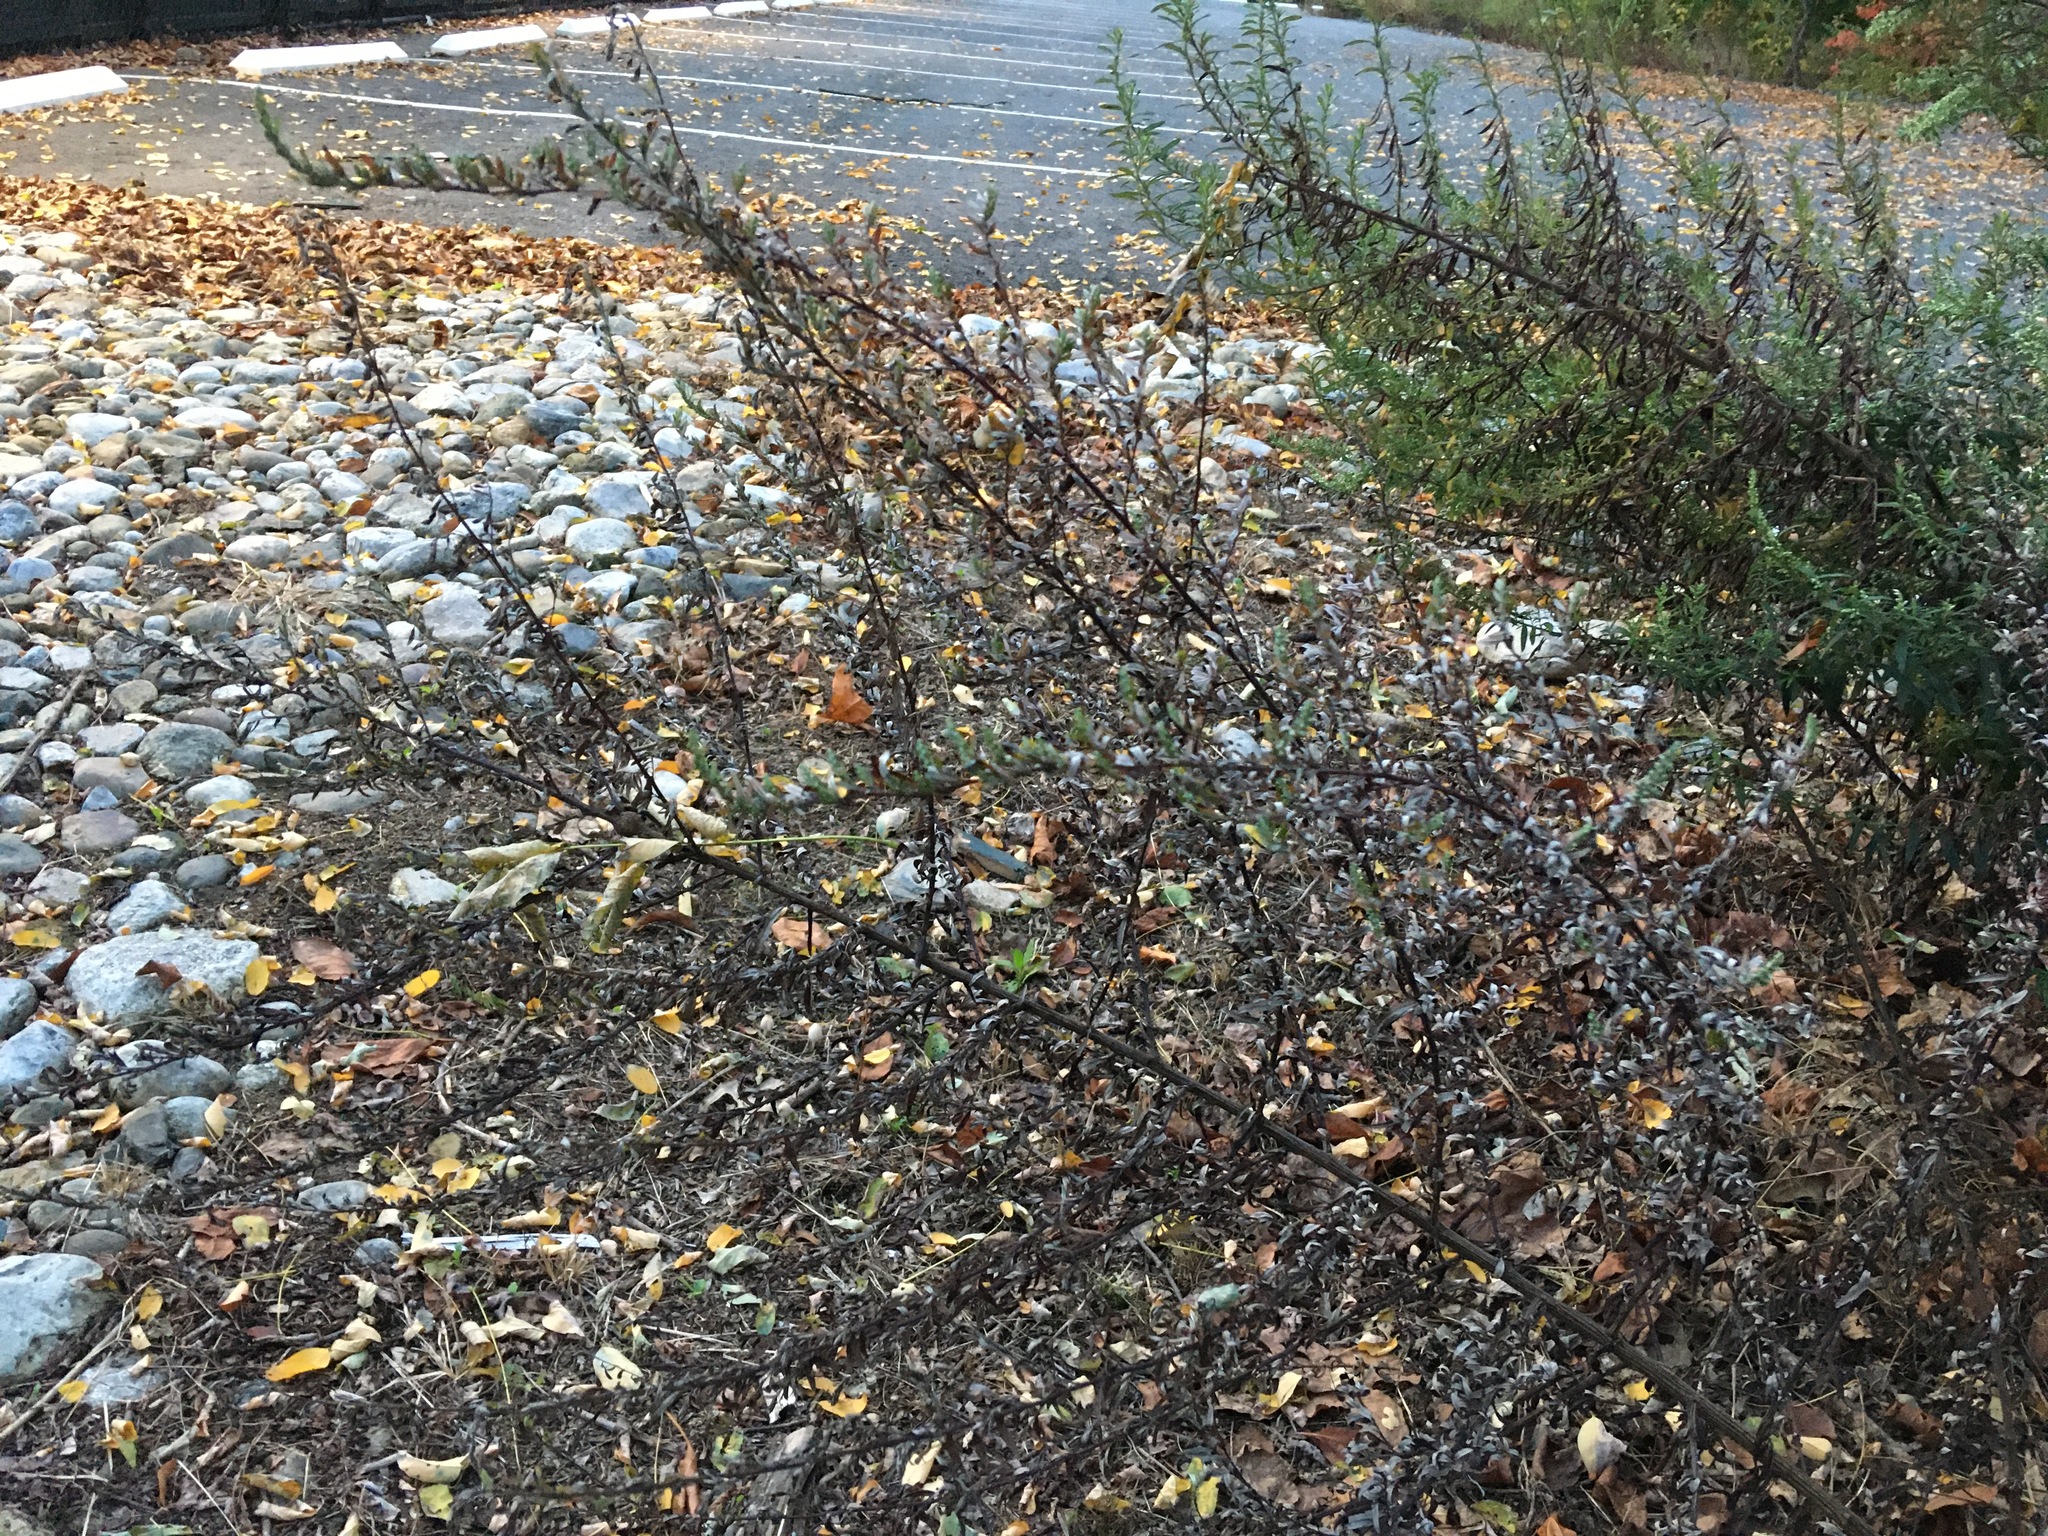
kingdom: Plantae
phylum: Tracheophyta
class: Magnoliopsida
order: Asterales
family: Asteraceae
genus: Artemisia
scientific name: Artemisia vulgaris
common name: Mugwort
